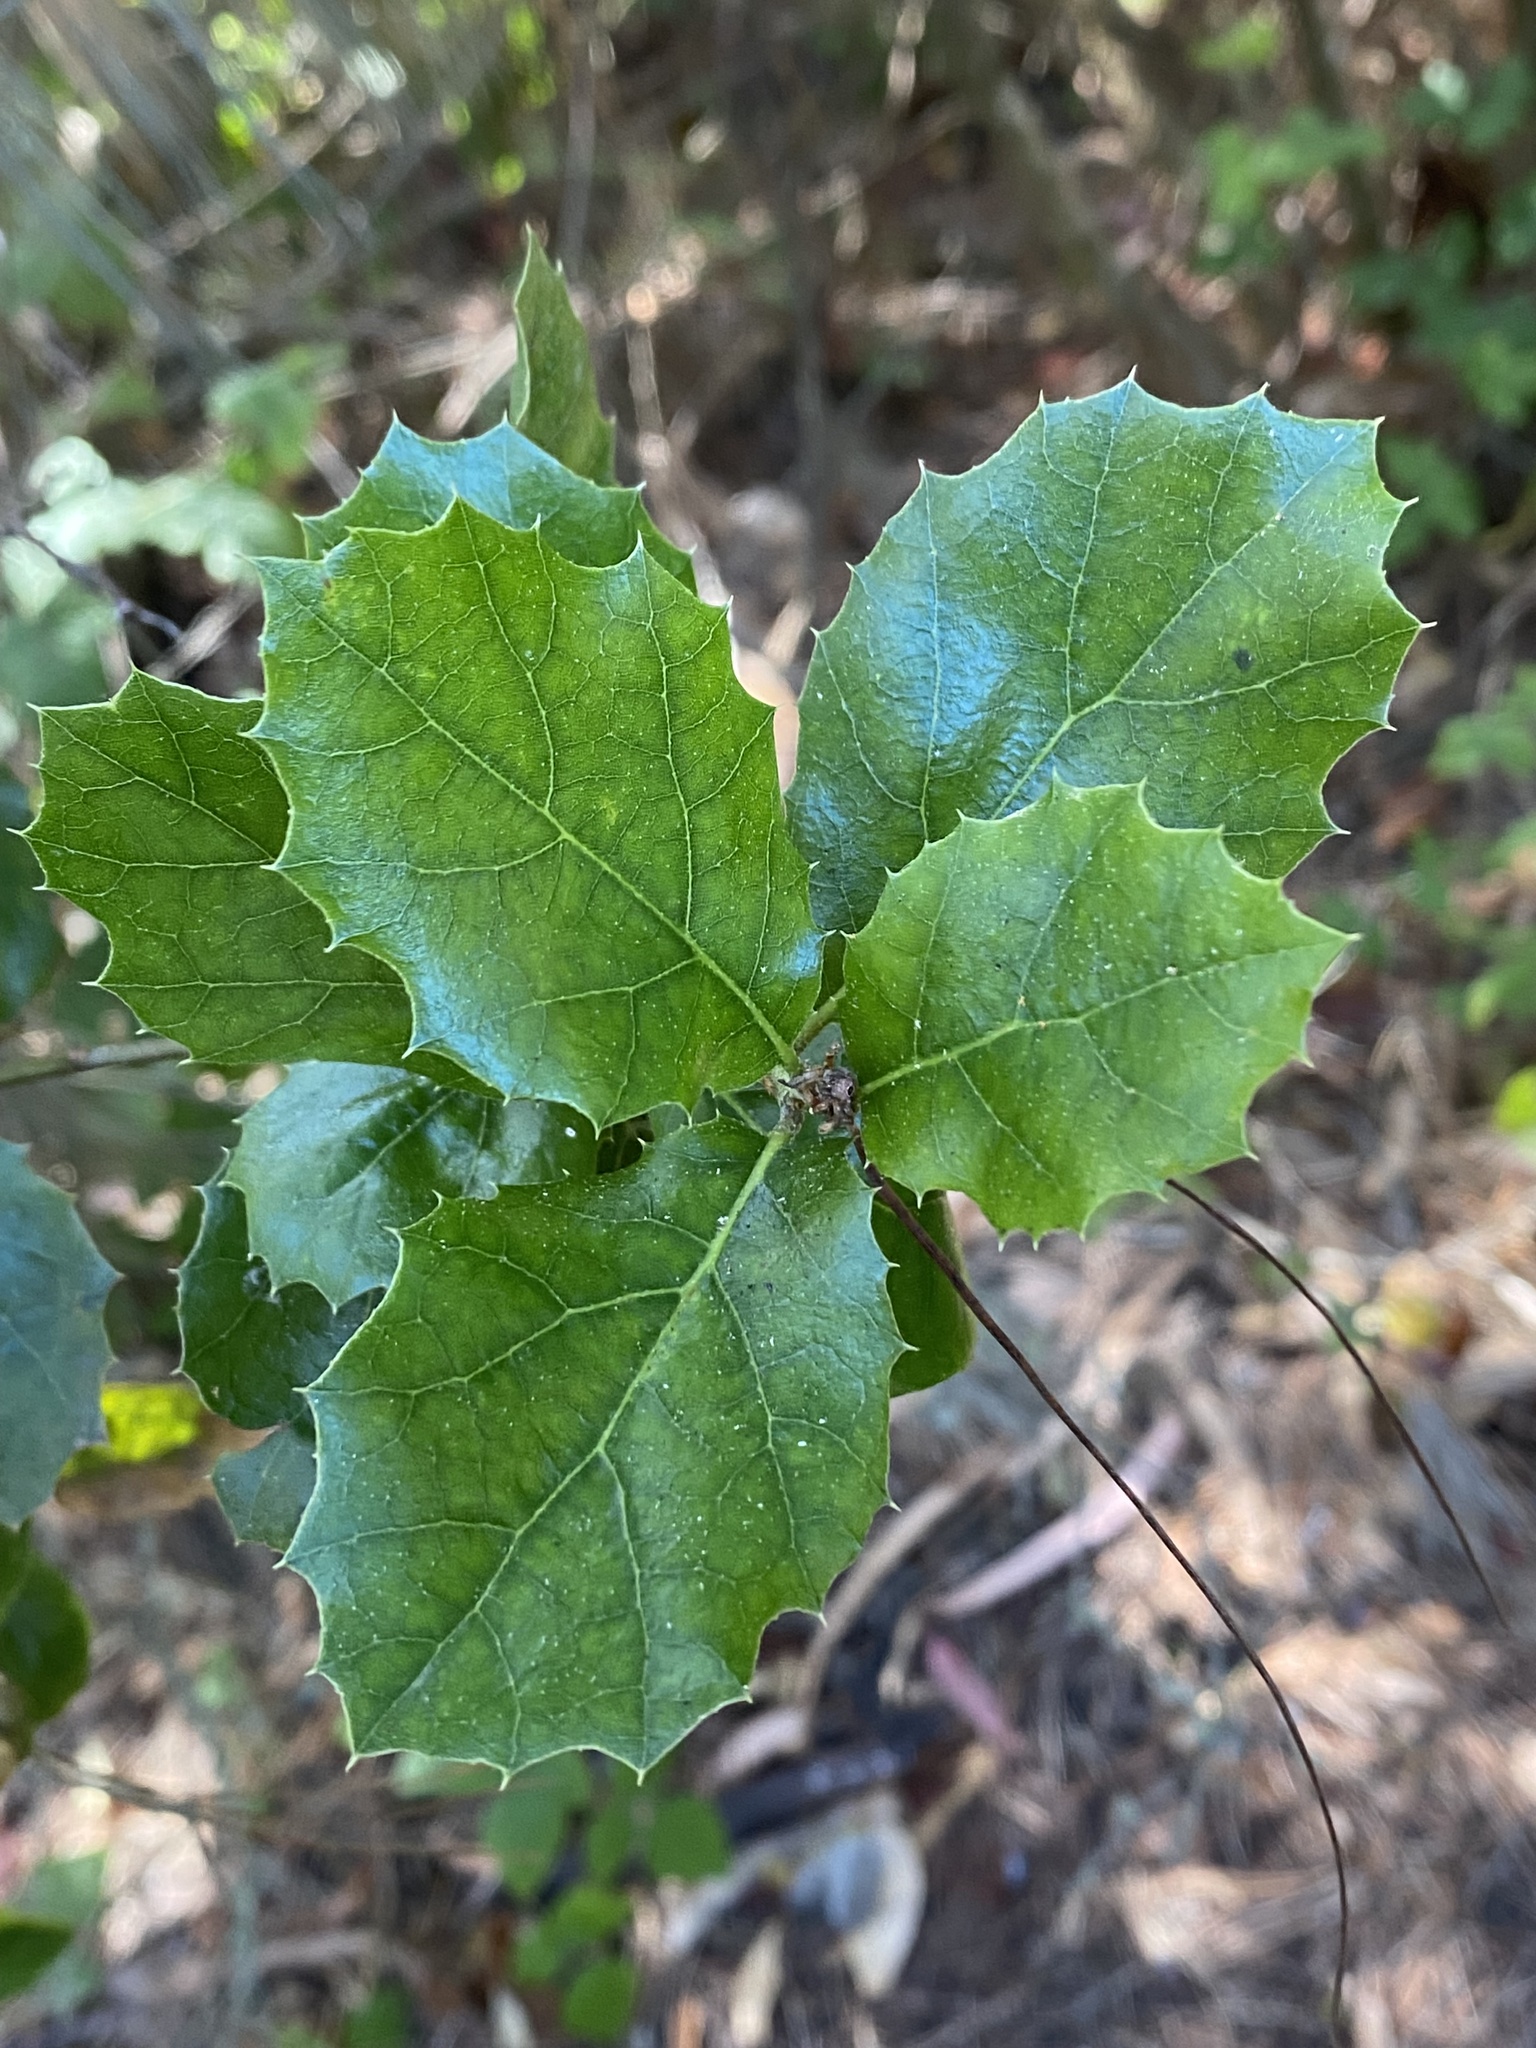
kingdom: Plantae
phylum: Tracheophyta
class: Magnoliopsida
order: Fagales
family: Fagaceae
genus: Quercus
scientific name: Quercus agrifolia
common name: California live oak
